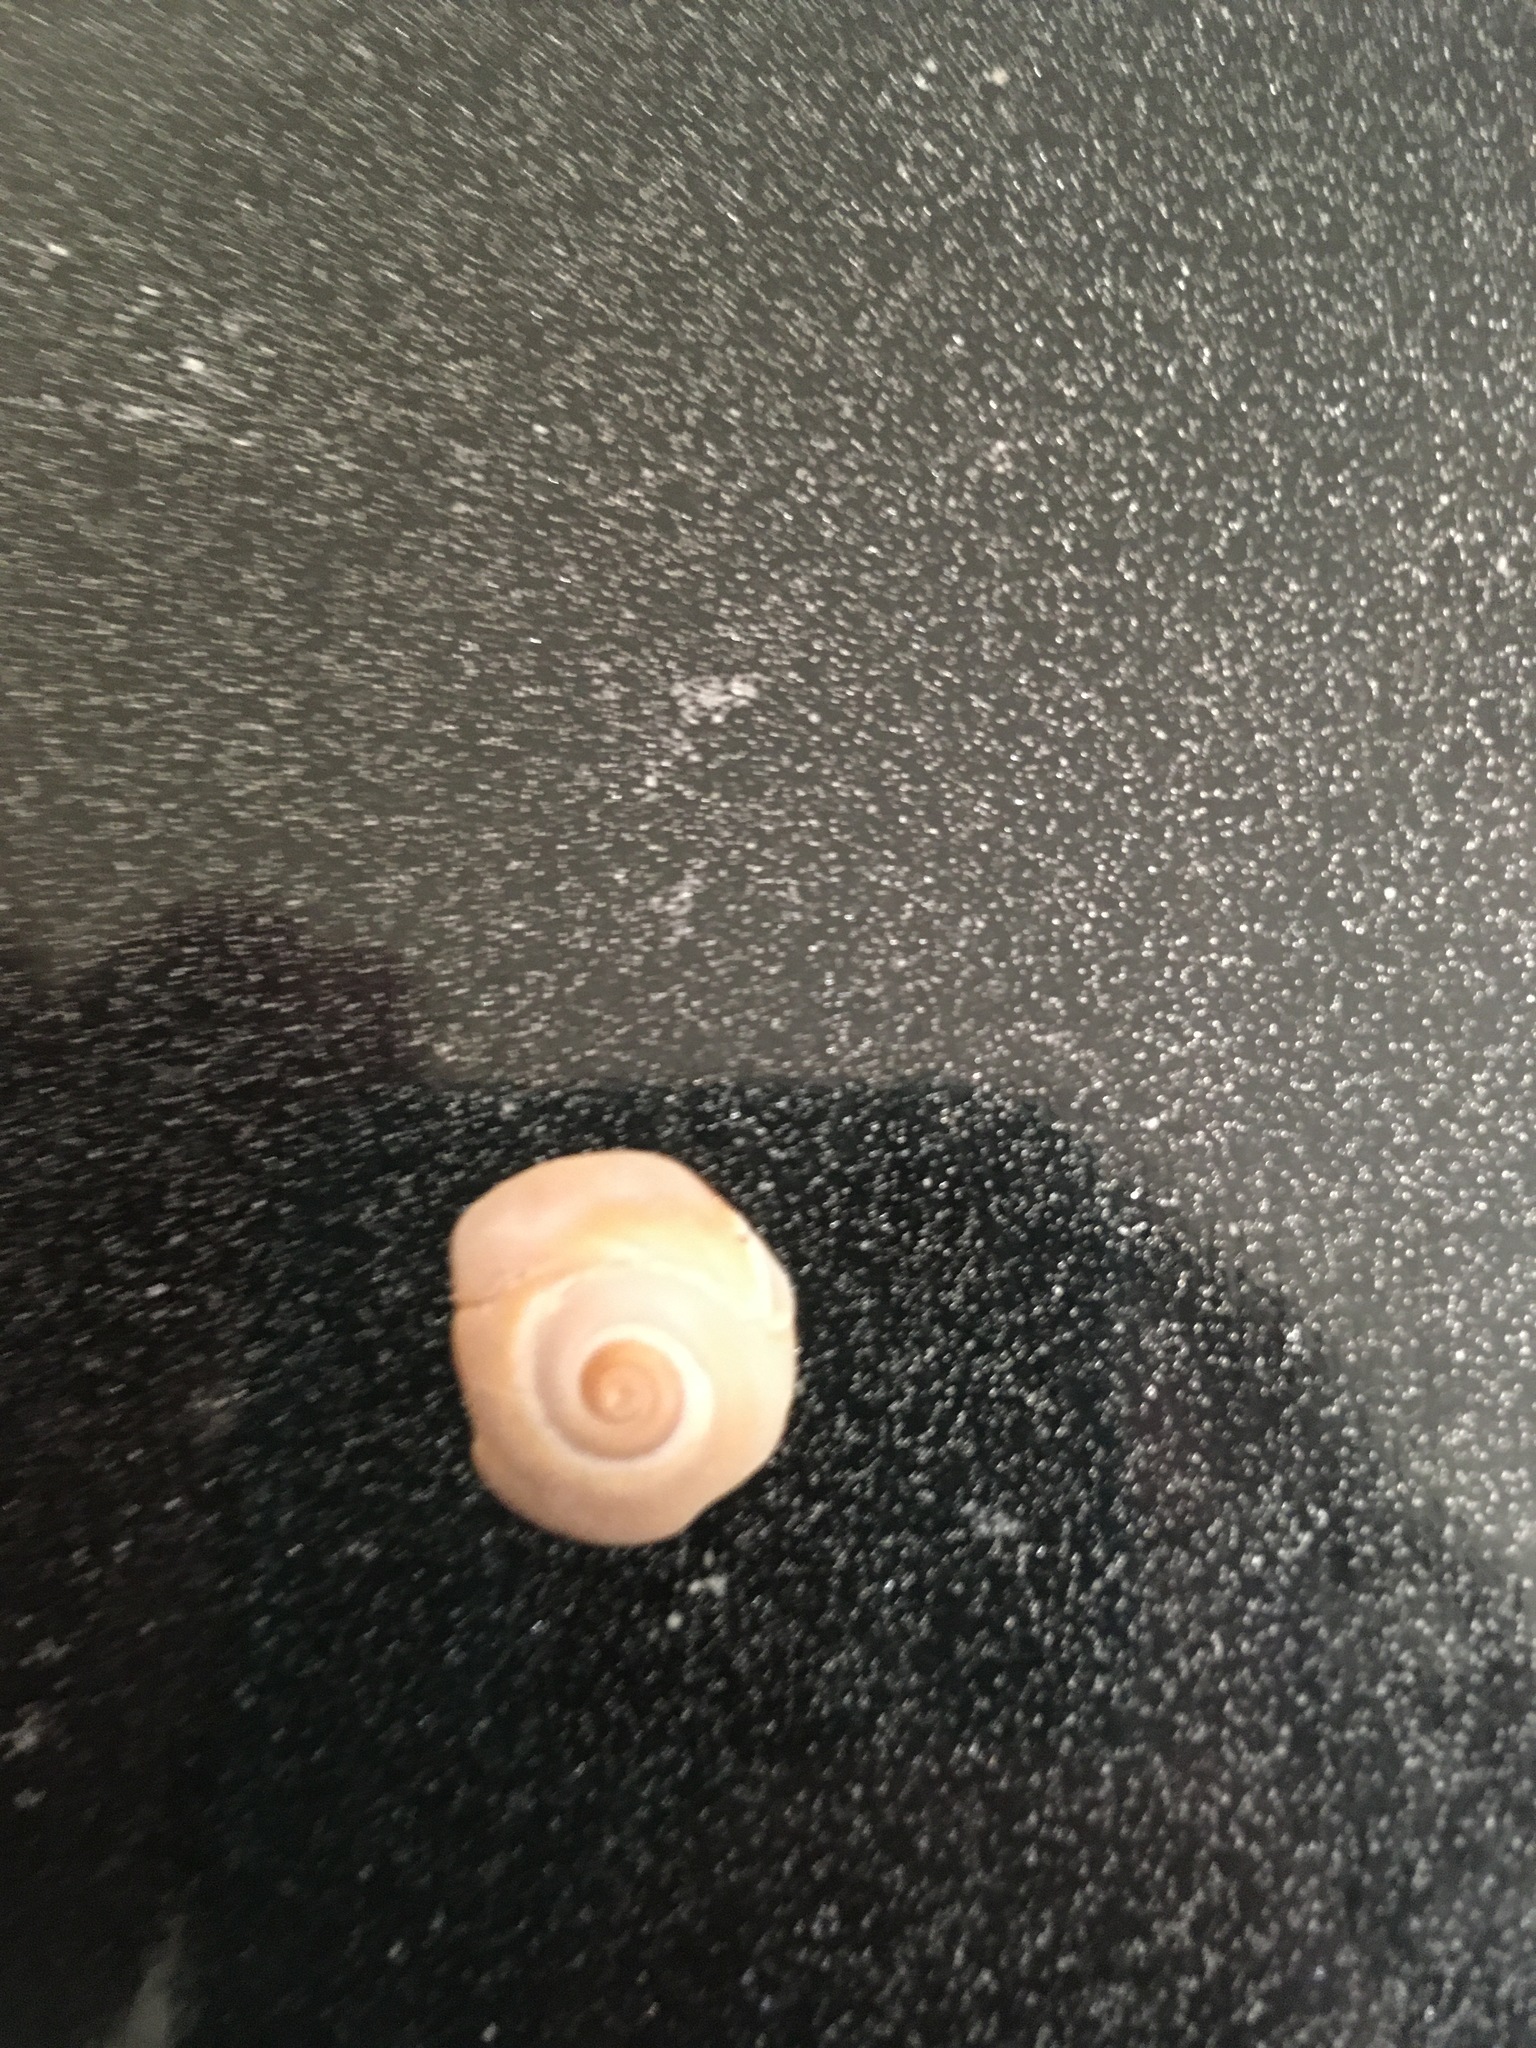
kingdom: Animalia
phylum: Mollusca
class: Gastropoda
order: Littorinimorpha
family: Naticidae
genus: Neverita
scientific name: Neverita duplicata
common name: Lobed moonsnail
